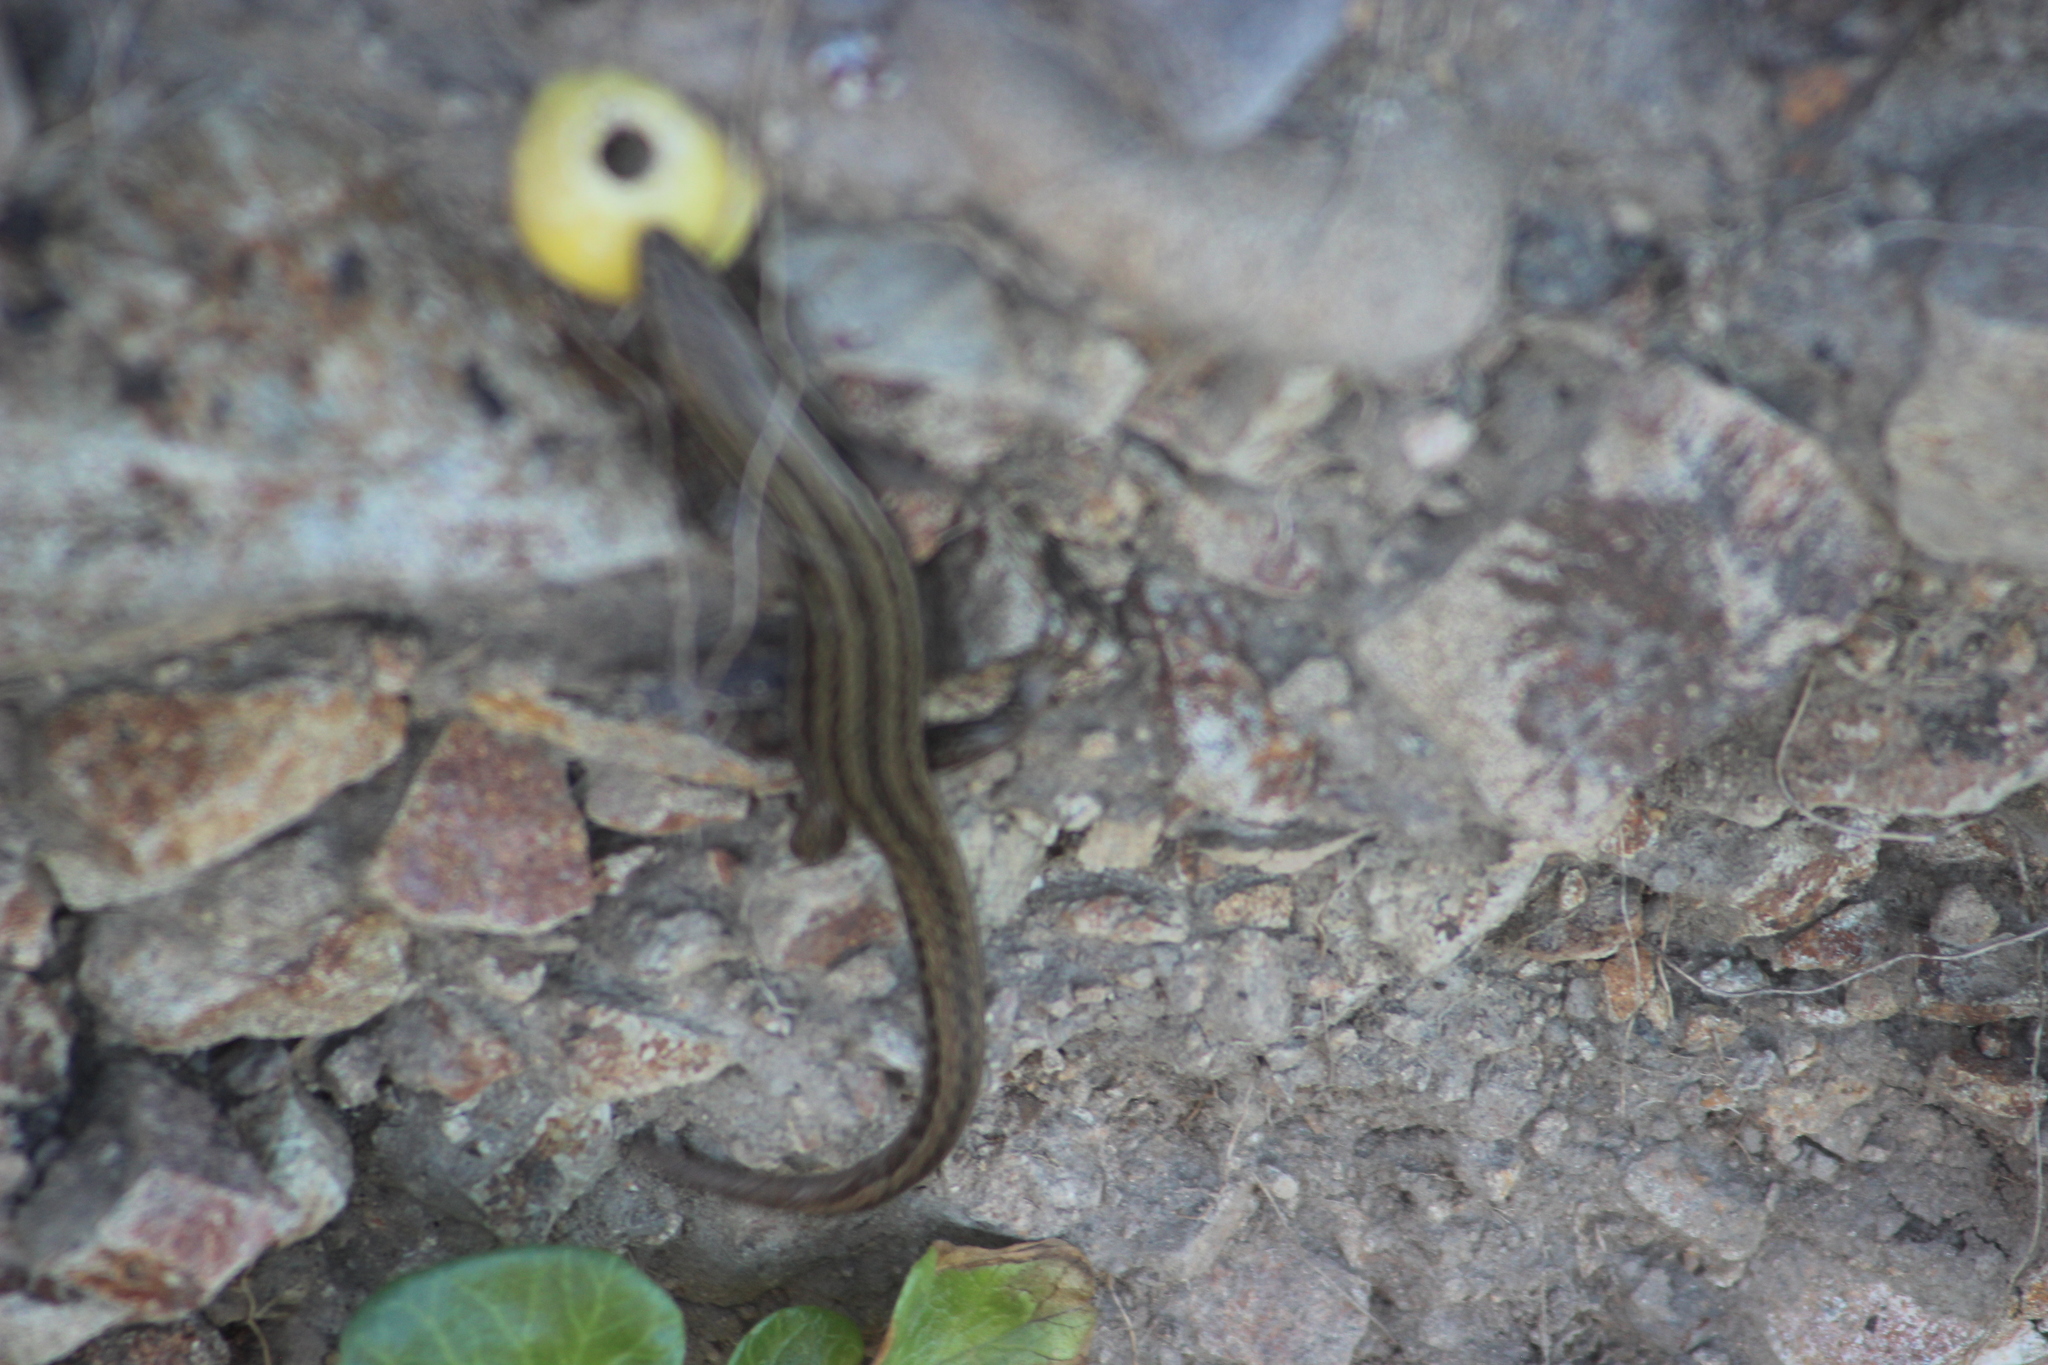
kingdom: Animalia
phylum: Chordata
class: Squamata
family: Scincidae
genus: Oligosoma
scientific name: Oligosoma polychroma
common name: Common new zealand skink
